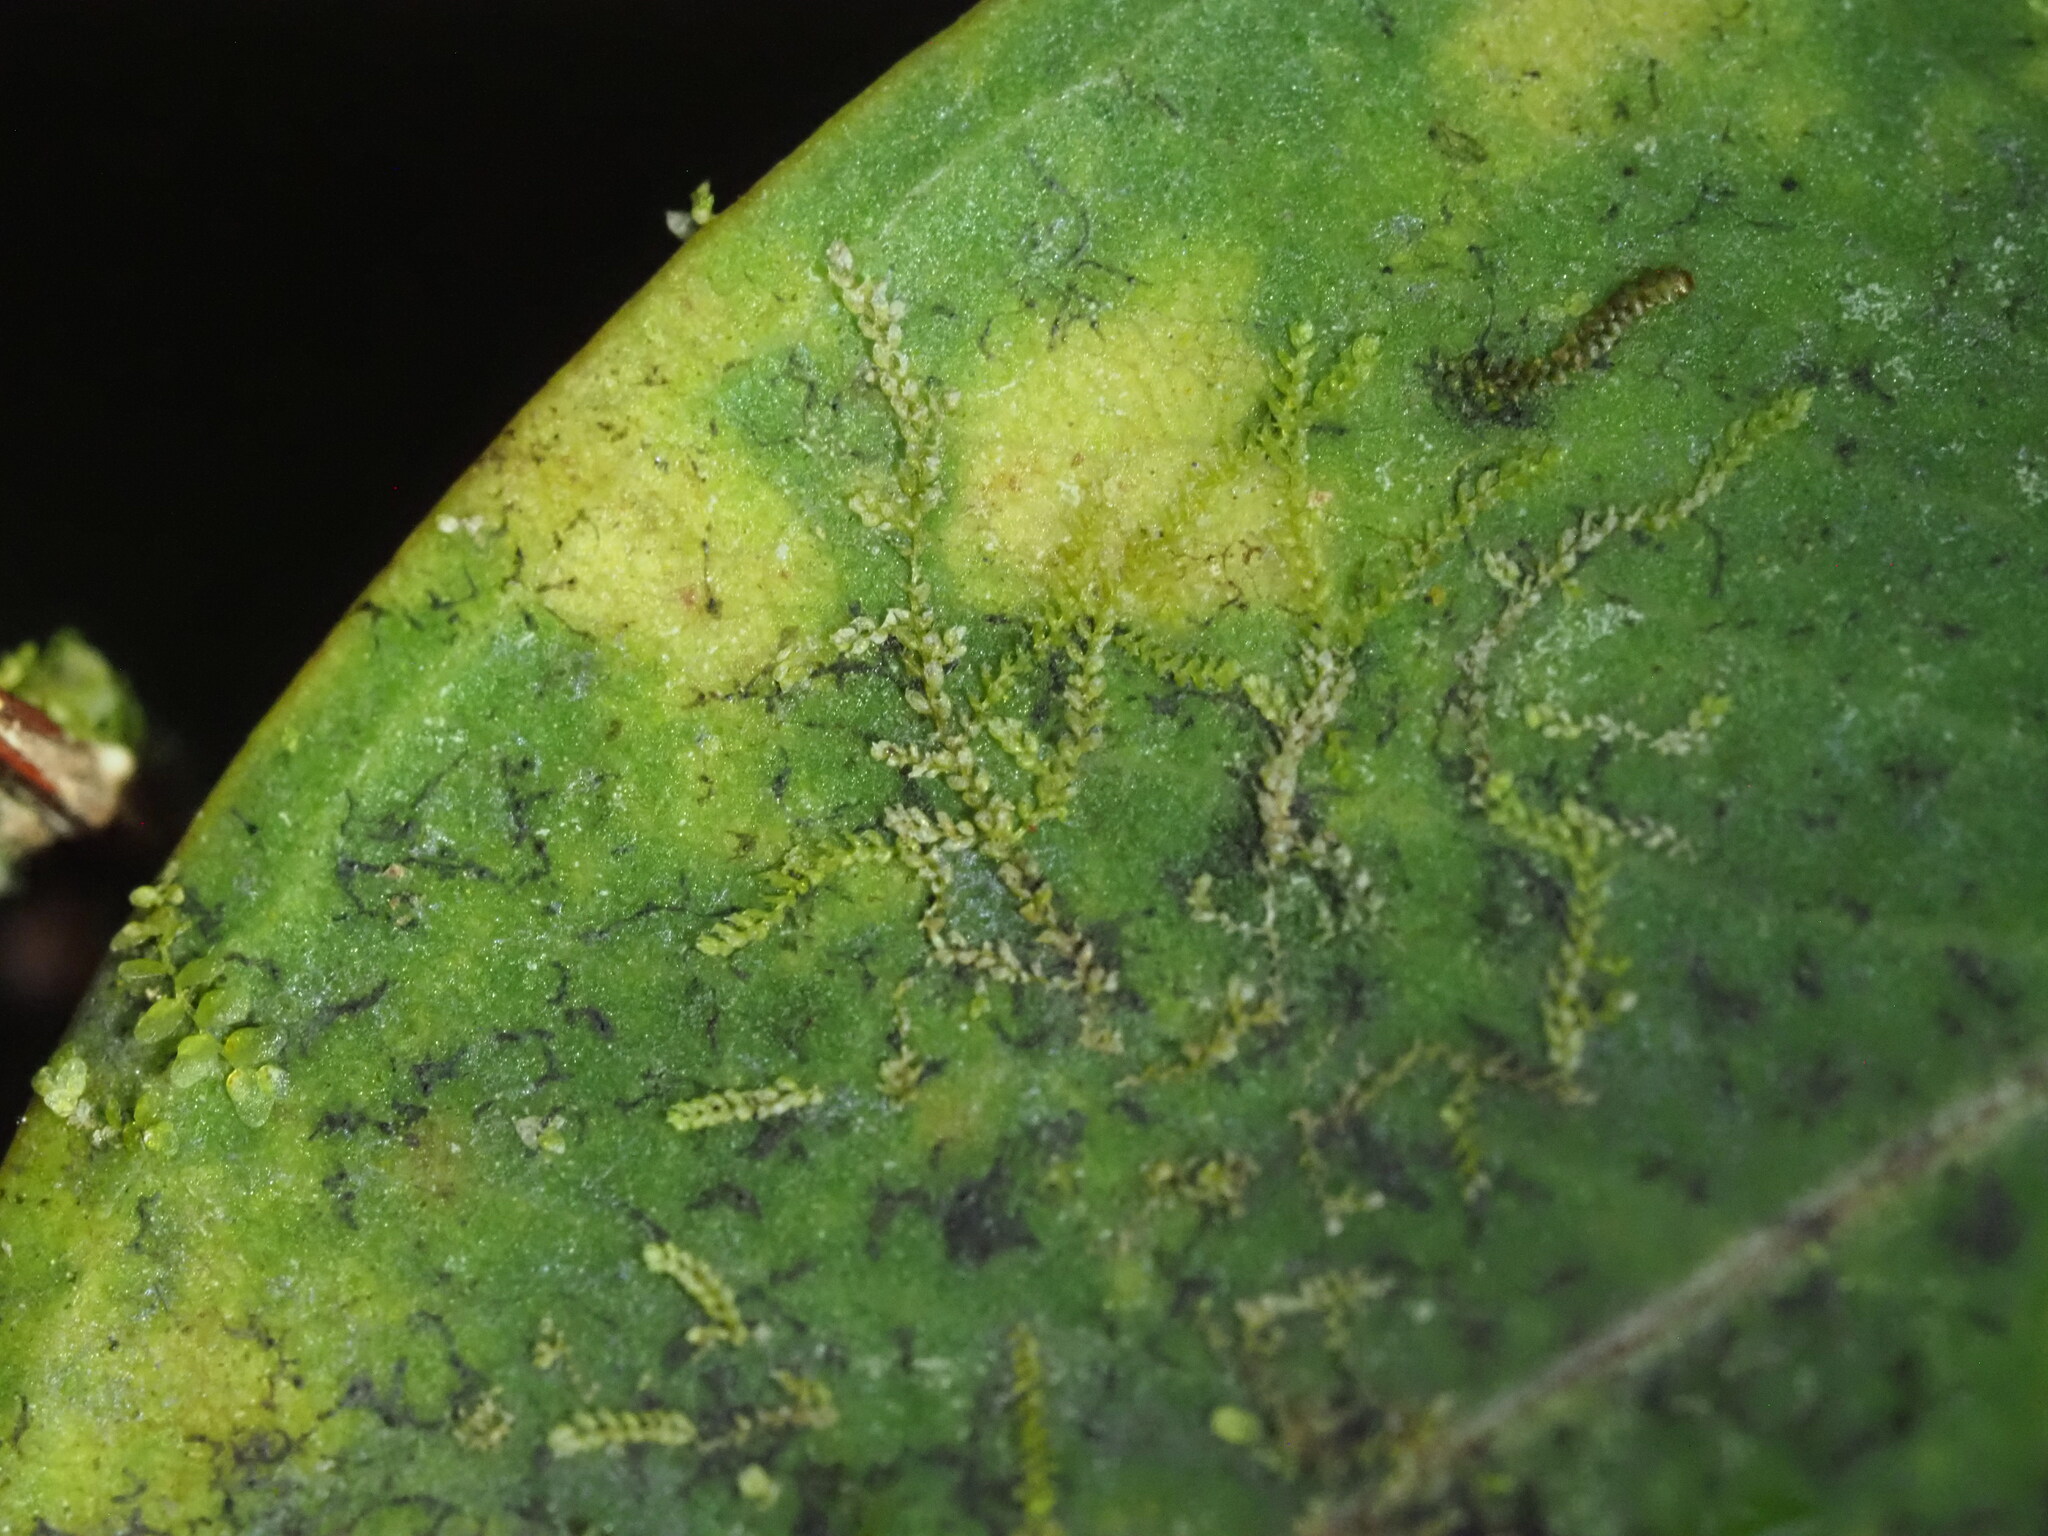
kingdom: Plantae
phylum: Marchantiophyta
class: Jungermanniopsida
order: Porellales
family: Lejeuneaceae
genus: Drepanolejeunea
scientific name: Drepanolejeunea ungulata
